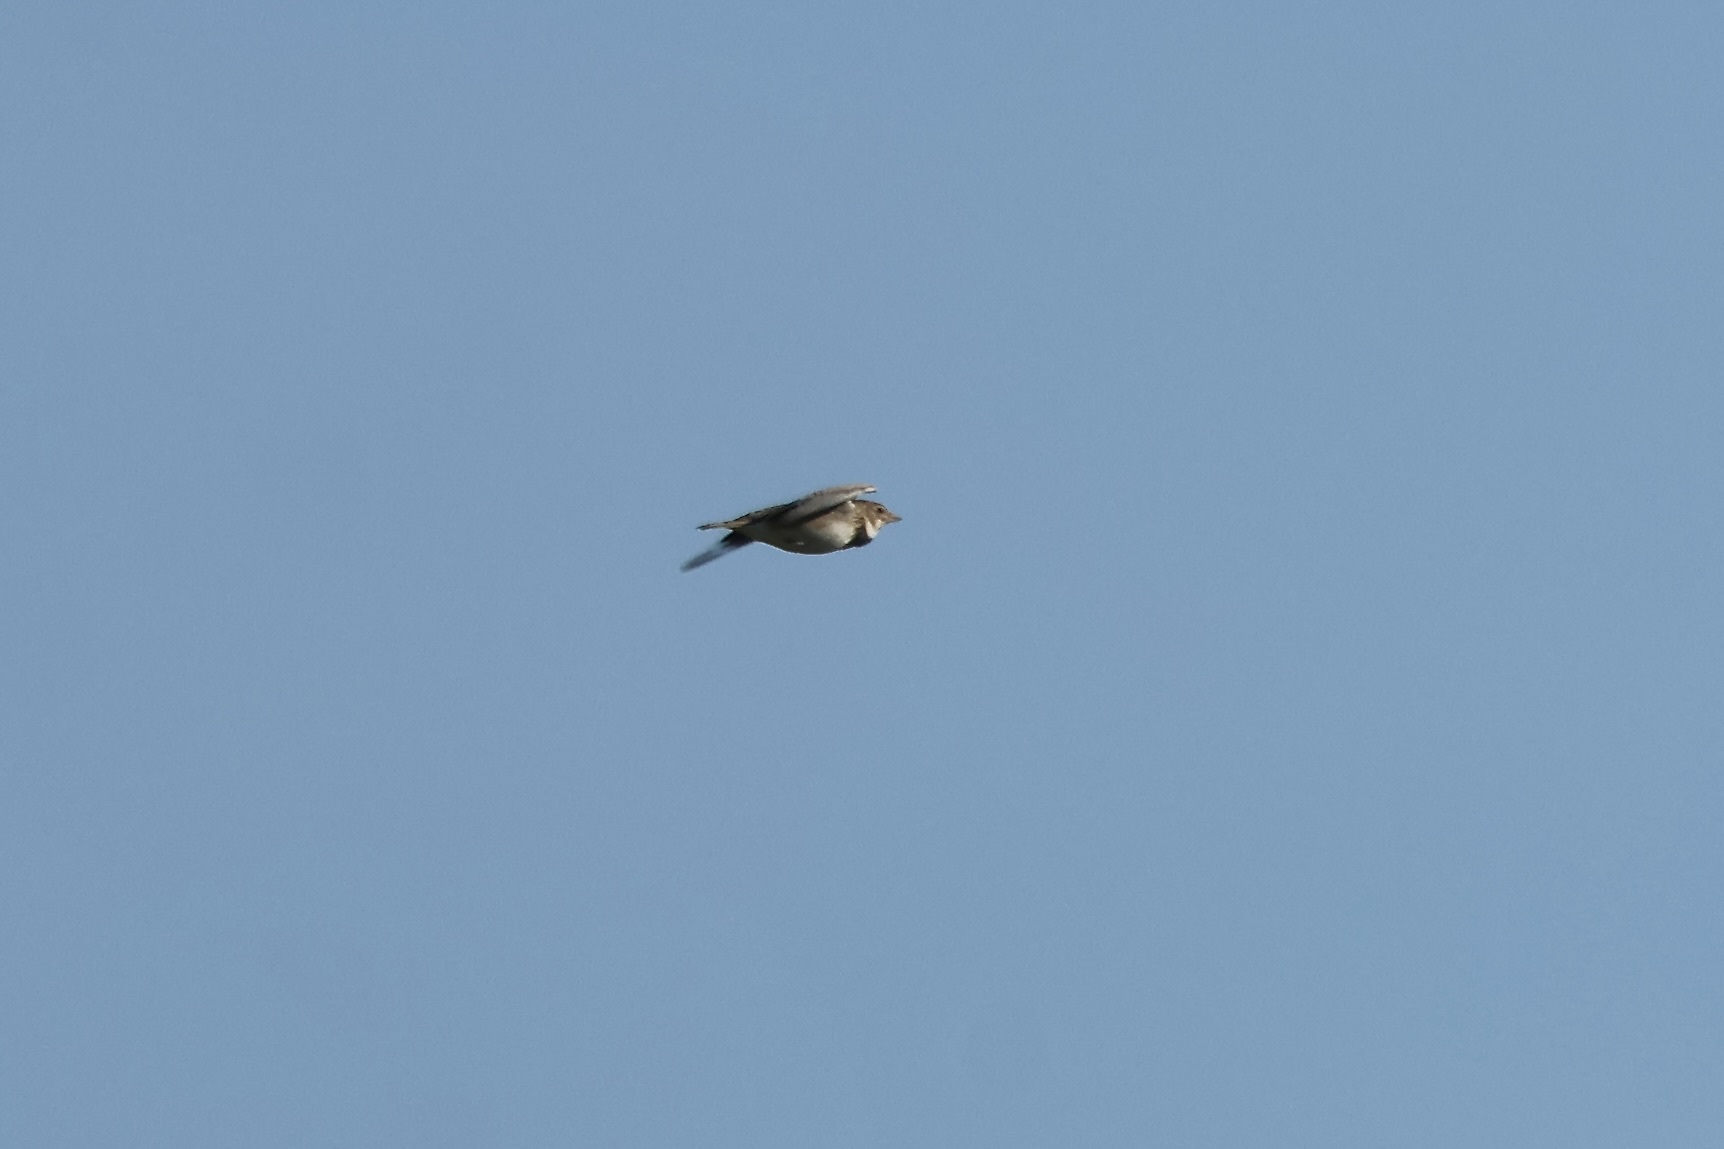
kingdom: Animalia
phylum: Chordata
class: Aves
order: Passeriformes
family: Alaudidae
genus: Melanocorypha
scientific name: Melanocorypha calandra
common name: Calandra lark
